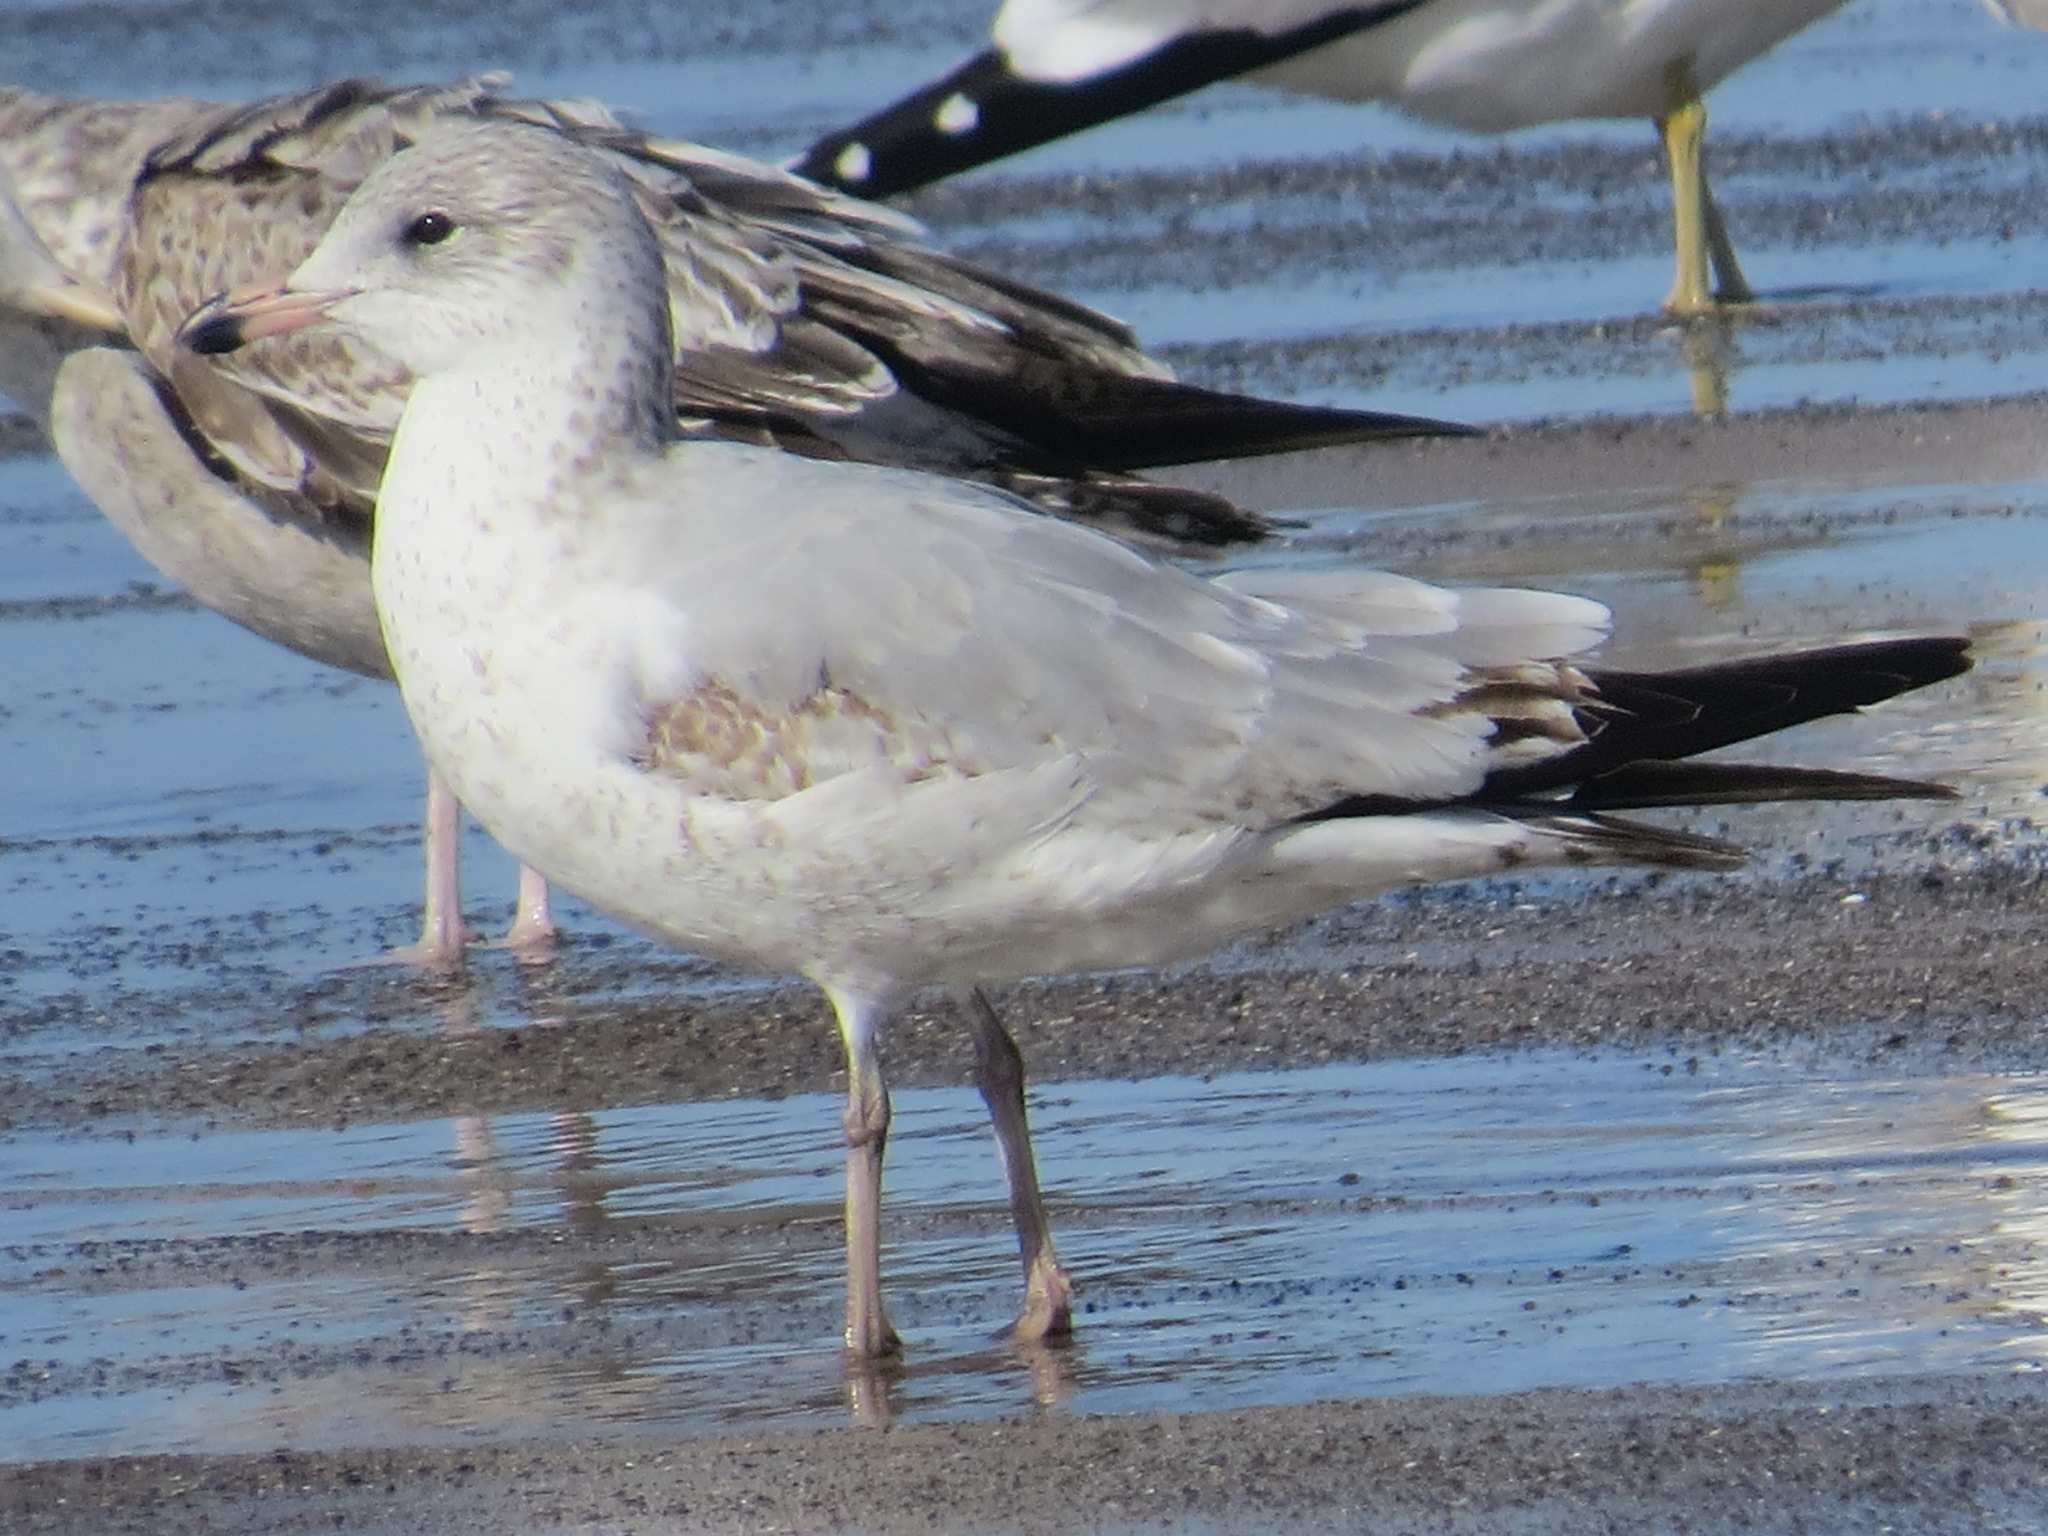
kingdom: Animalia
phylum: Chordata
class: Aves
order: Charadriiformes
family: Laridae
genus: Larus
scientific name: Larus delawarensis
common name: Ring-billed gull
